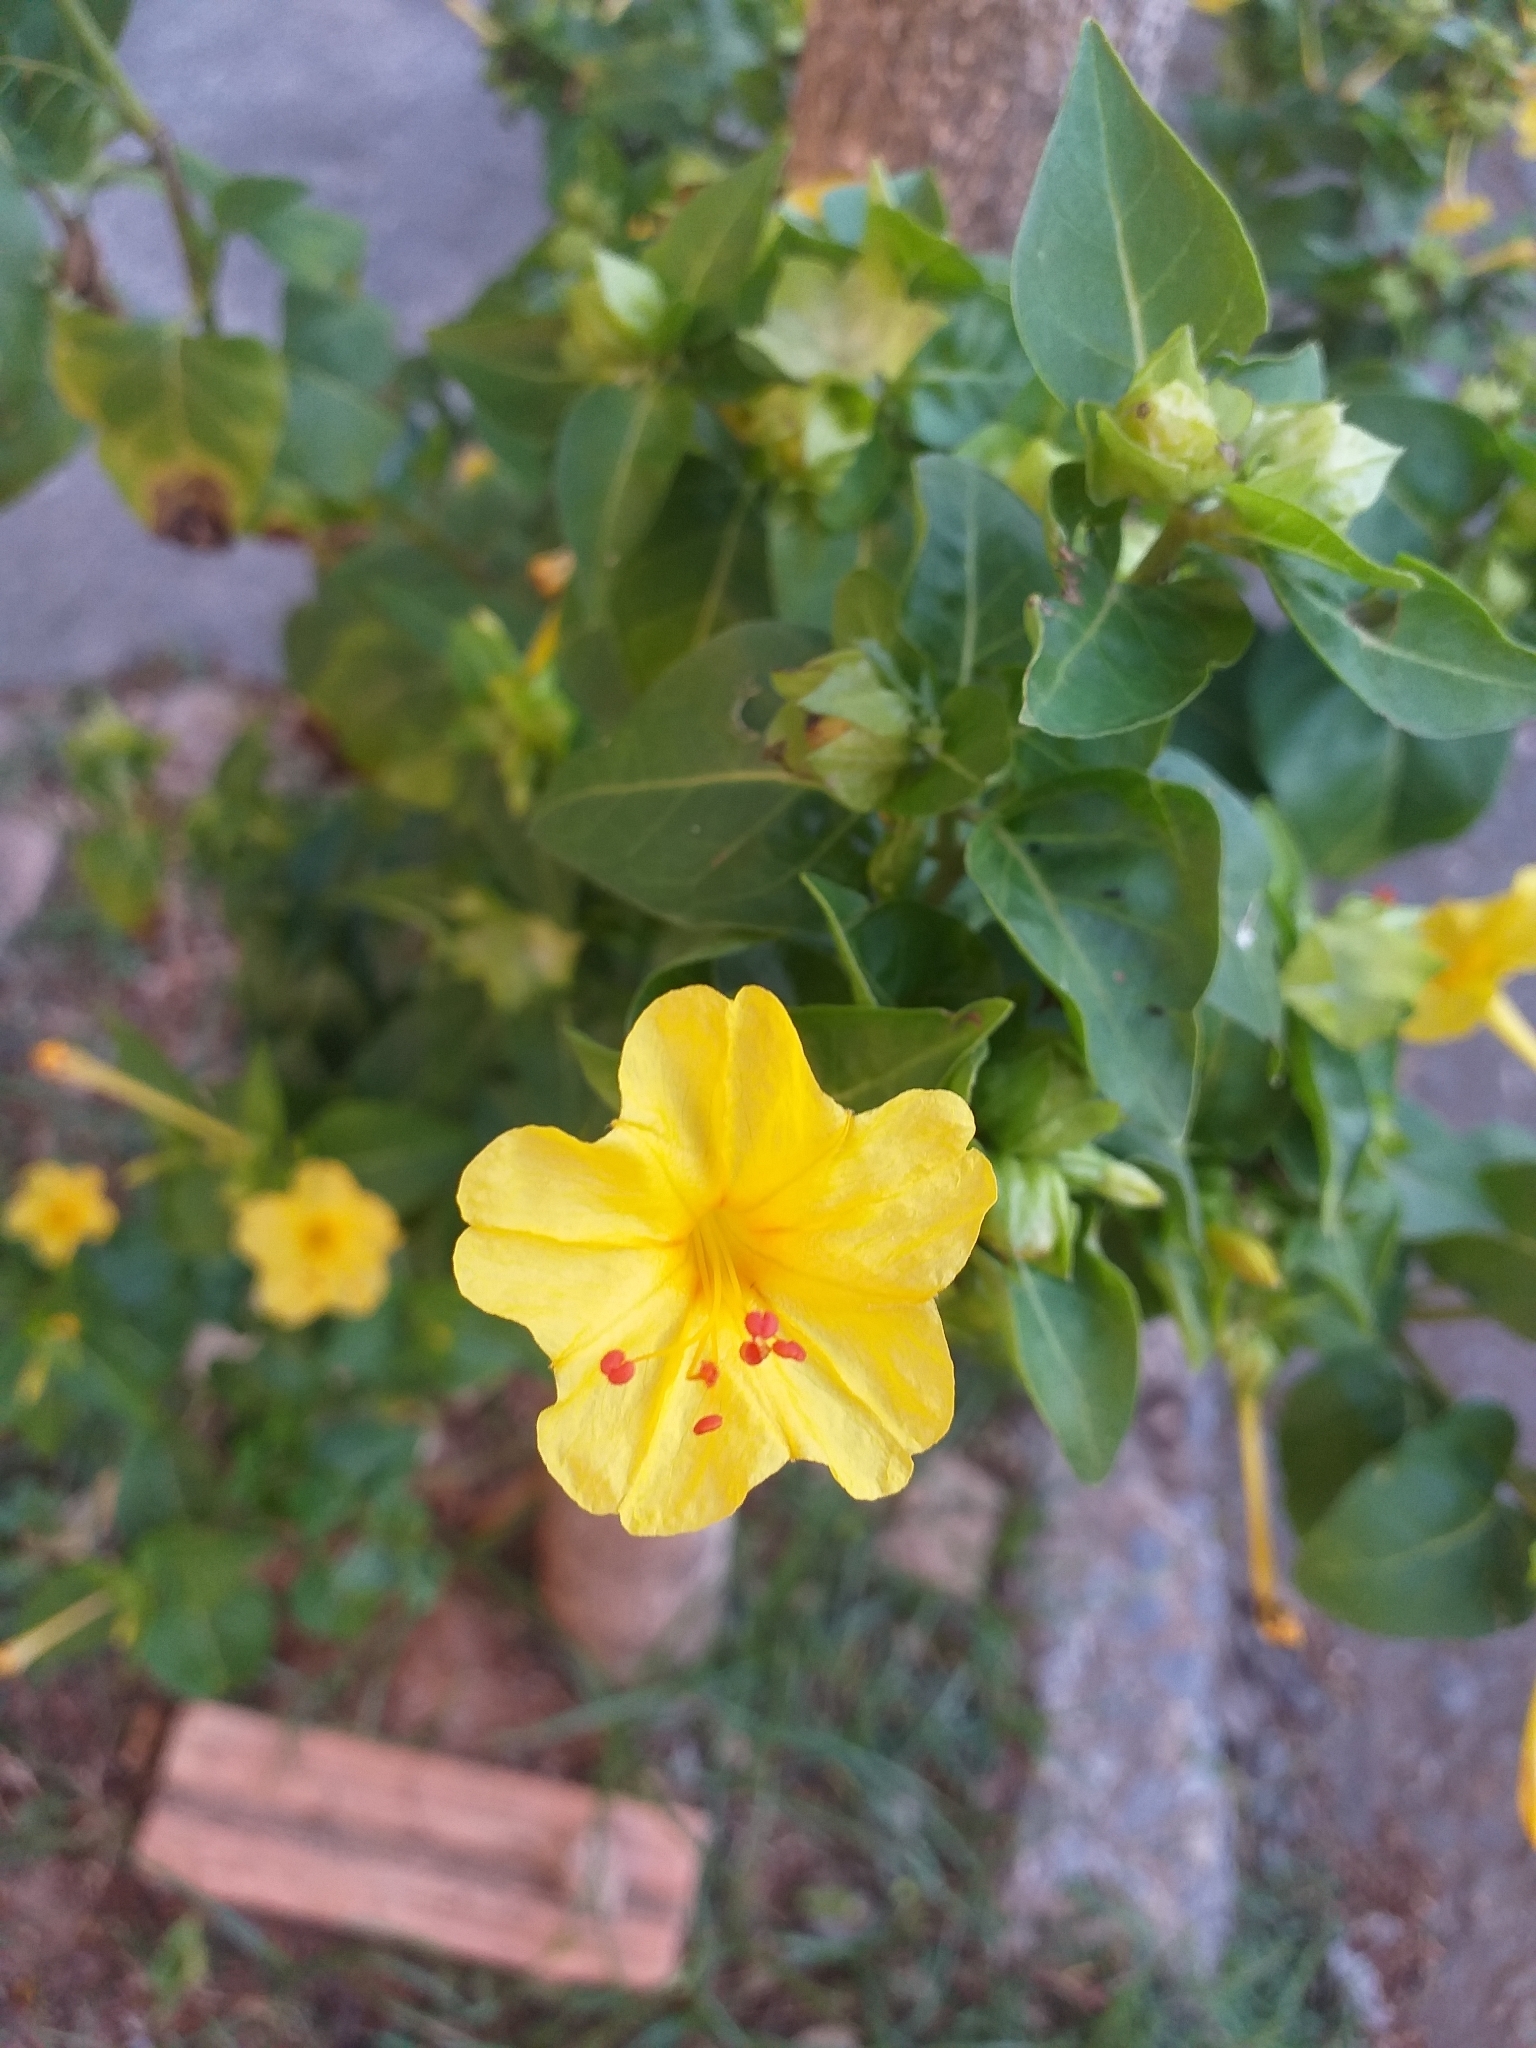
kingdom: Plantae
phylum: Tracheophyta
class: Magnoliopsida
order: Caryophyllales
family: Nyctaginaceae
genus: Mirabilis
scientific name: Mirabilis jalapa
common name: Marvel-of-peru
